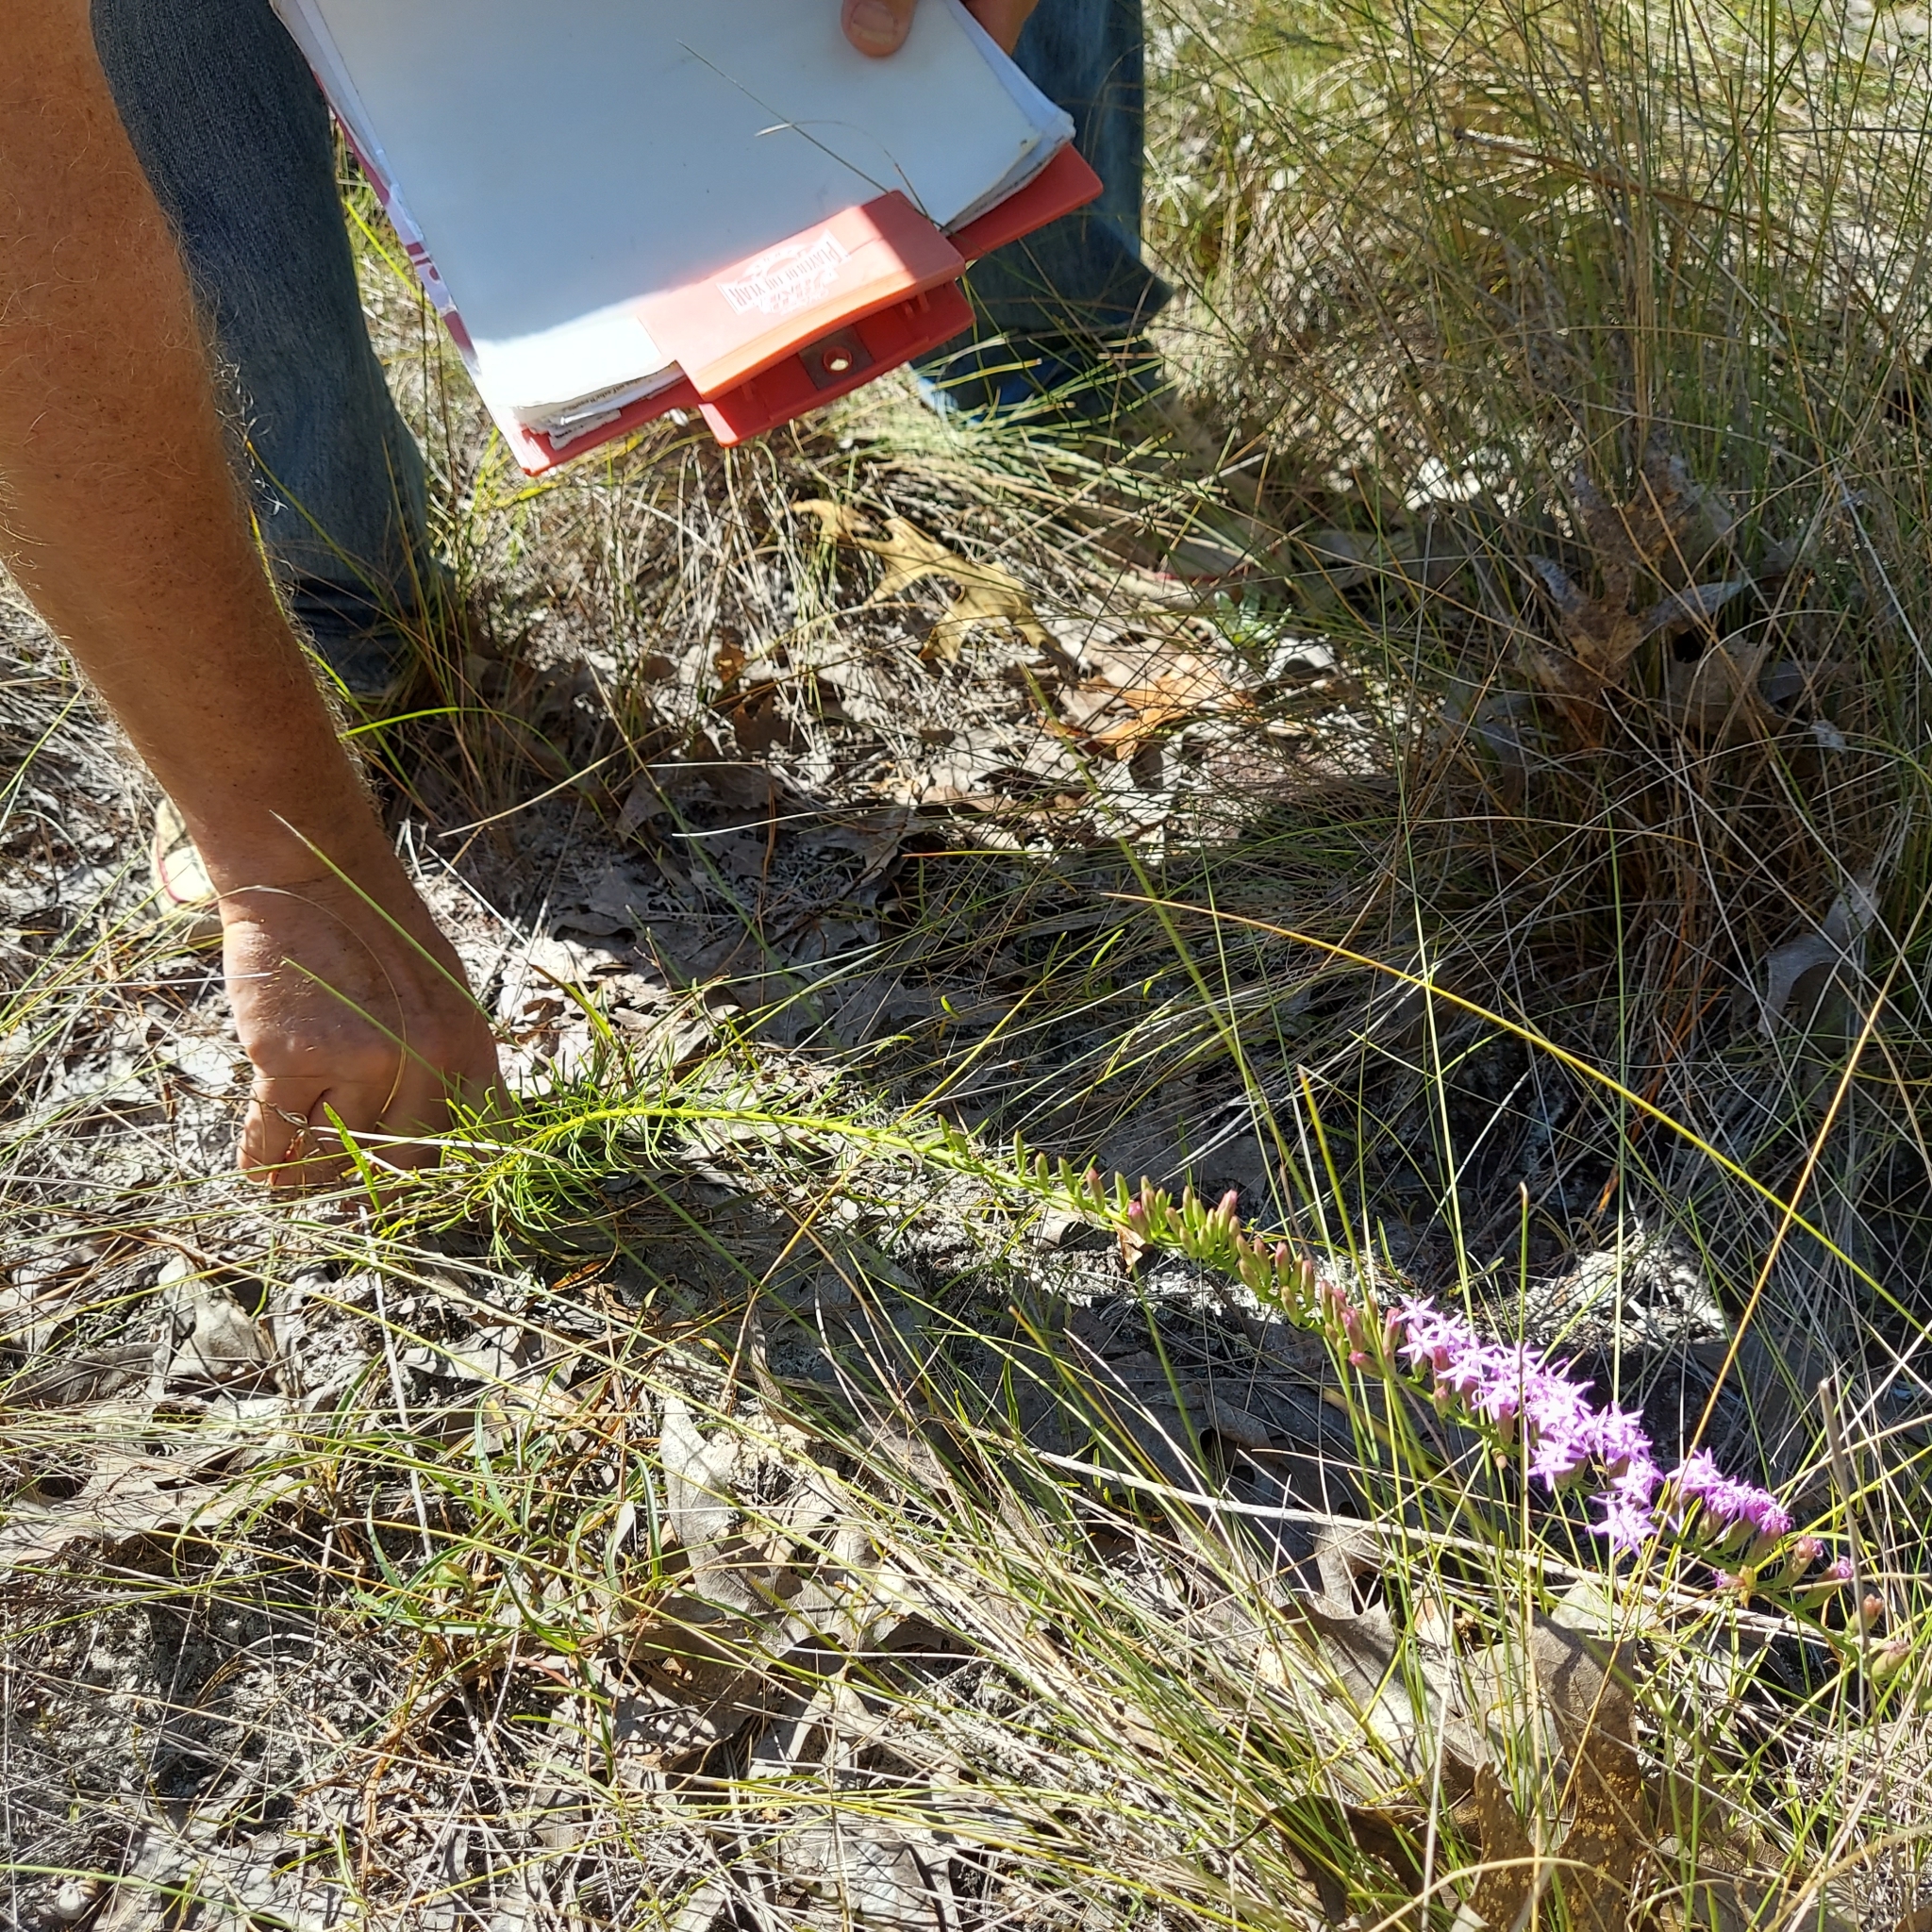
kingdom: Plantae
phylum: Tracheophyta
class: Magnoliopsida
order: Asterales
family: Asteraceae
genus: Liatris
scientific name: Liatris pauciflora
